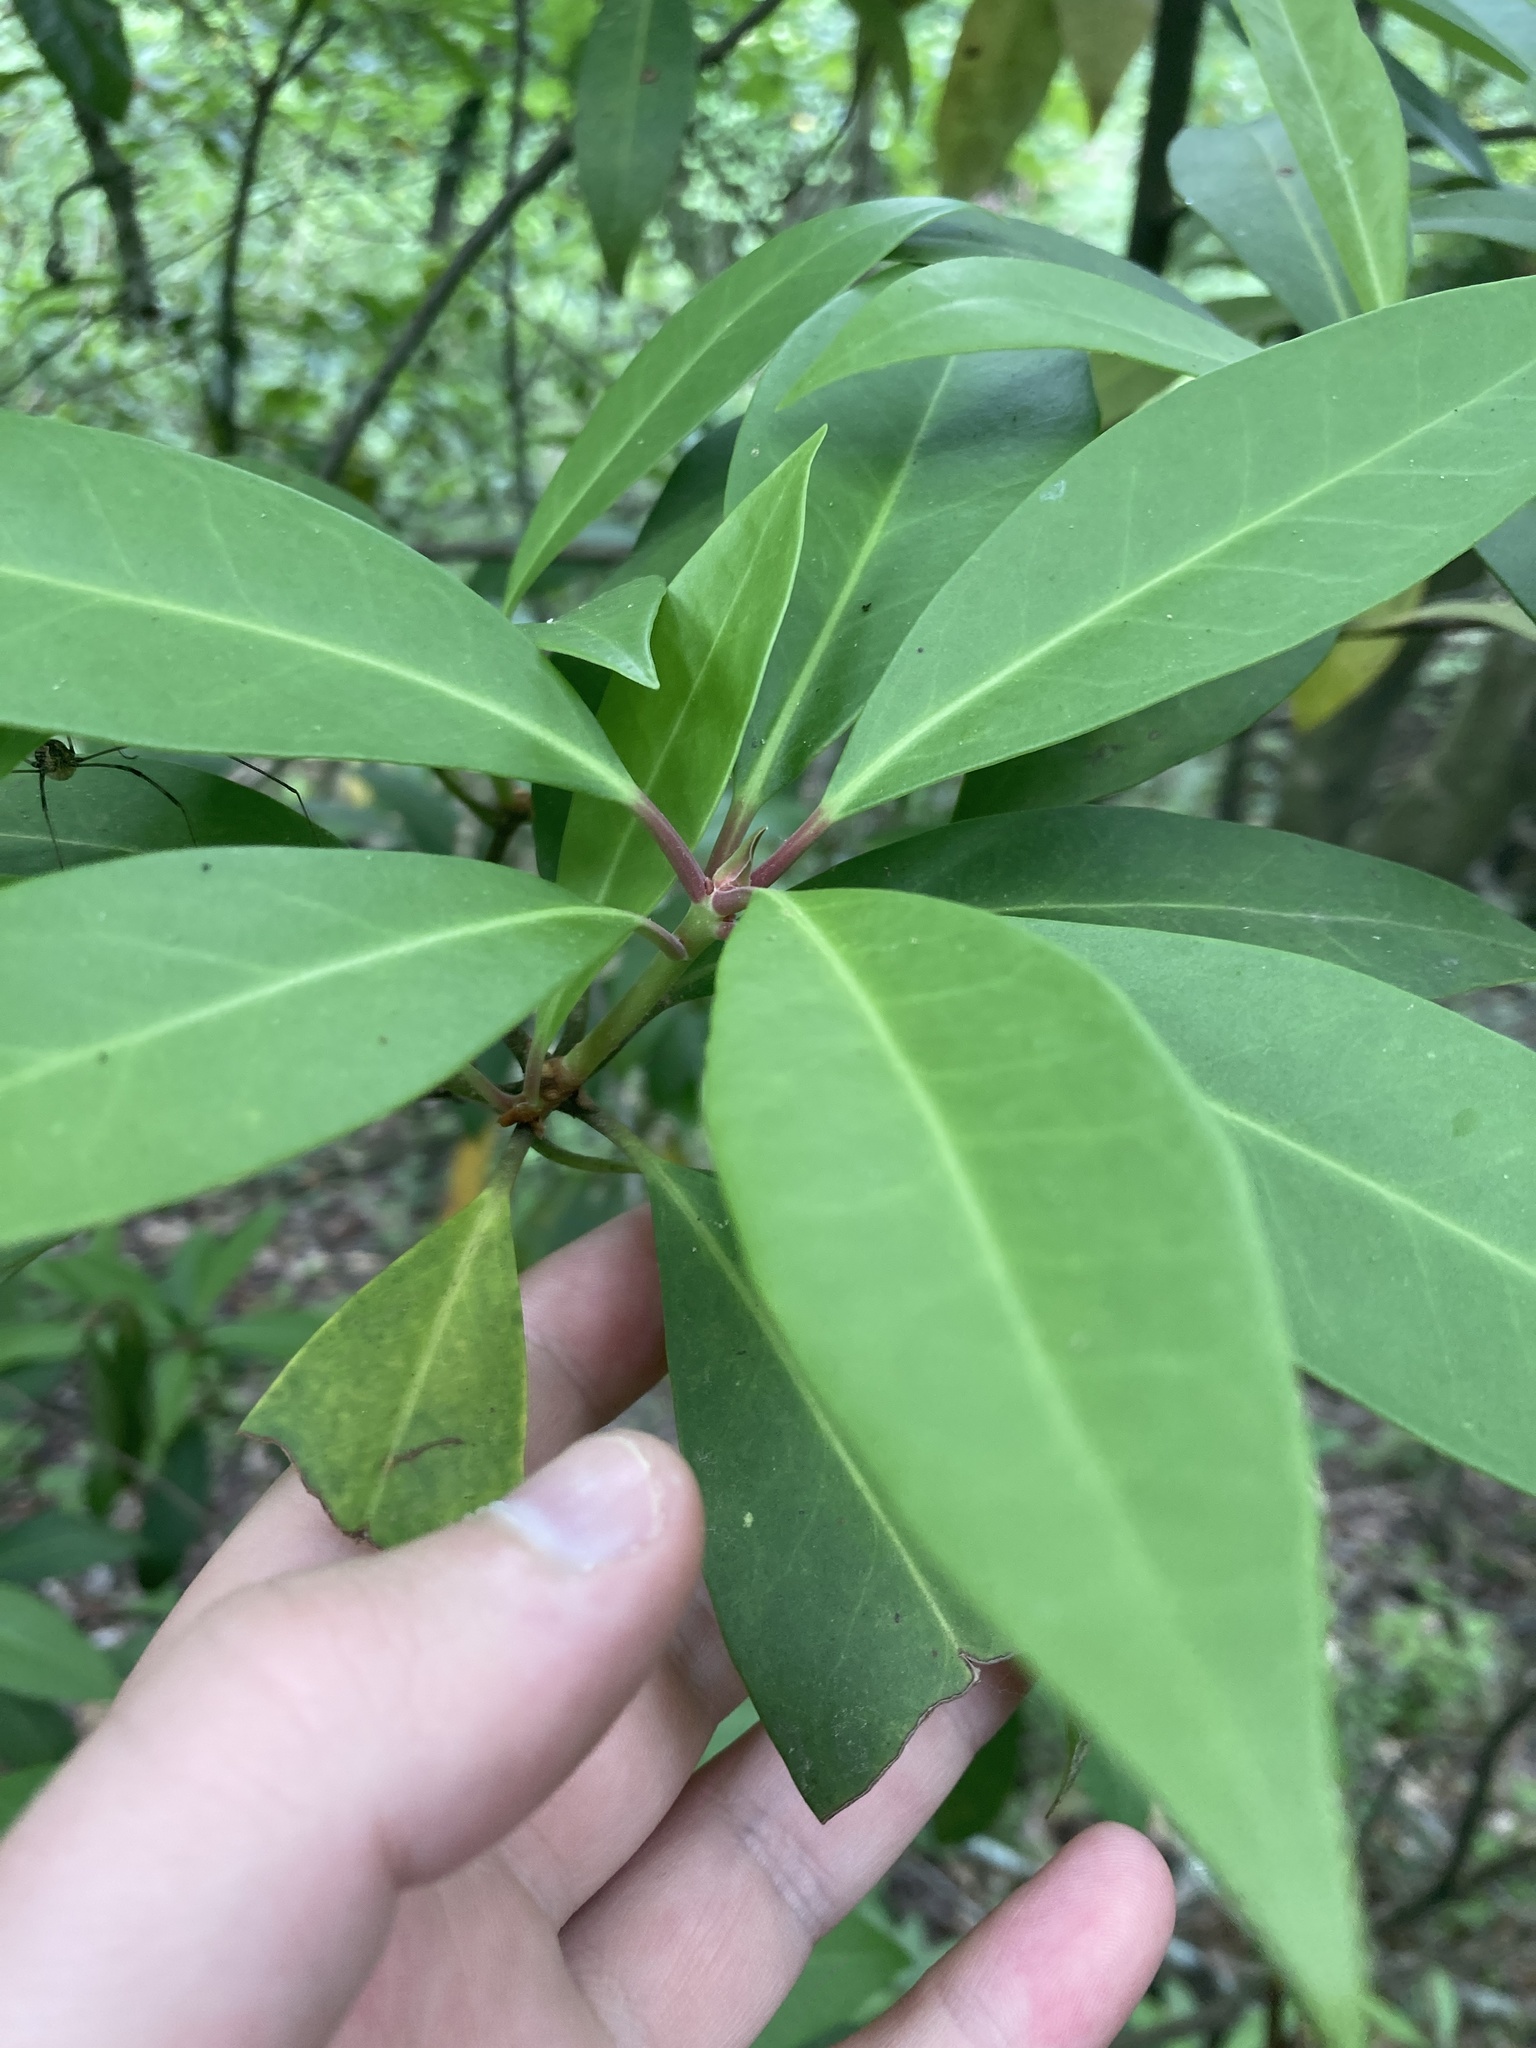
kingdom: Plantae
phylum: Tracheophyta
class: Magnoliopsida
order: Austrobaileyales
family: Schisandraceae
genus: Illicium
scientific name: Illicium floridanum
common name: Florida anisetree
